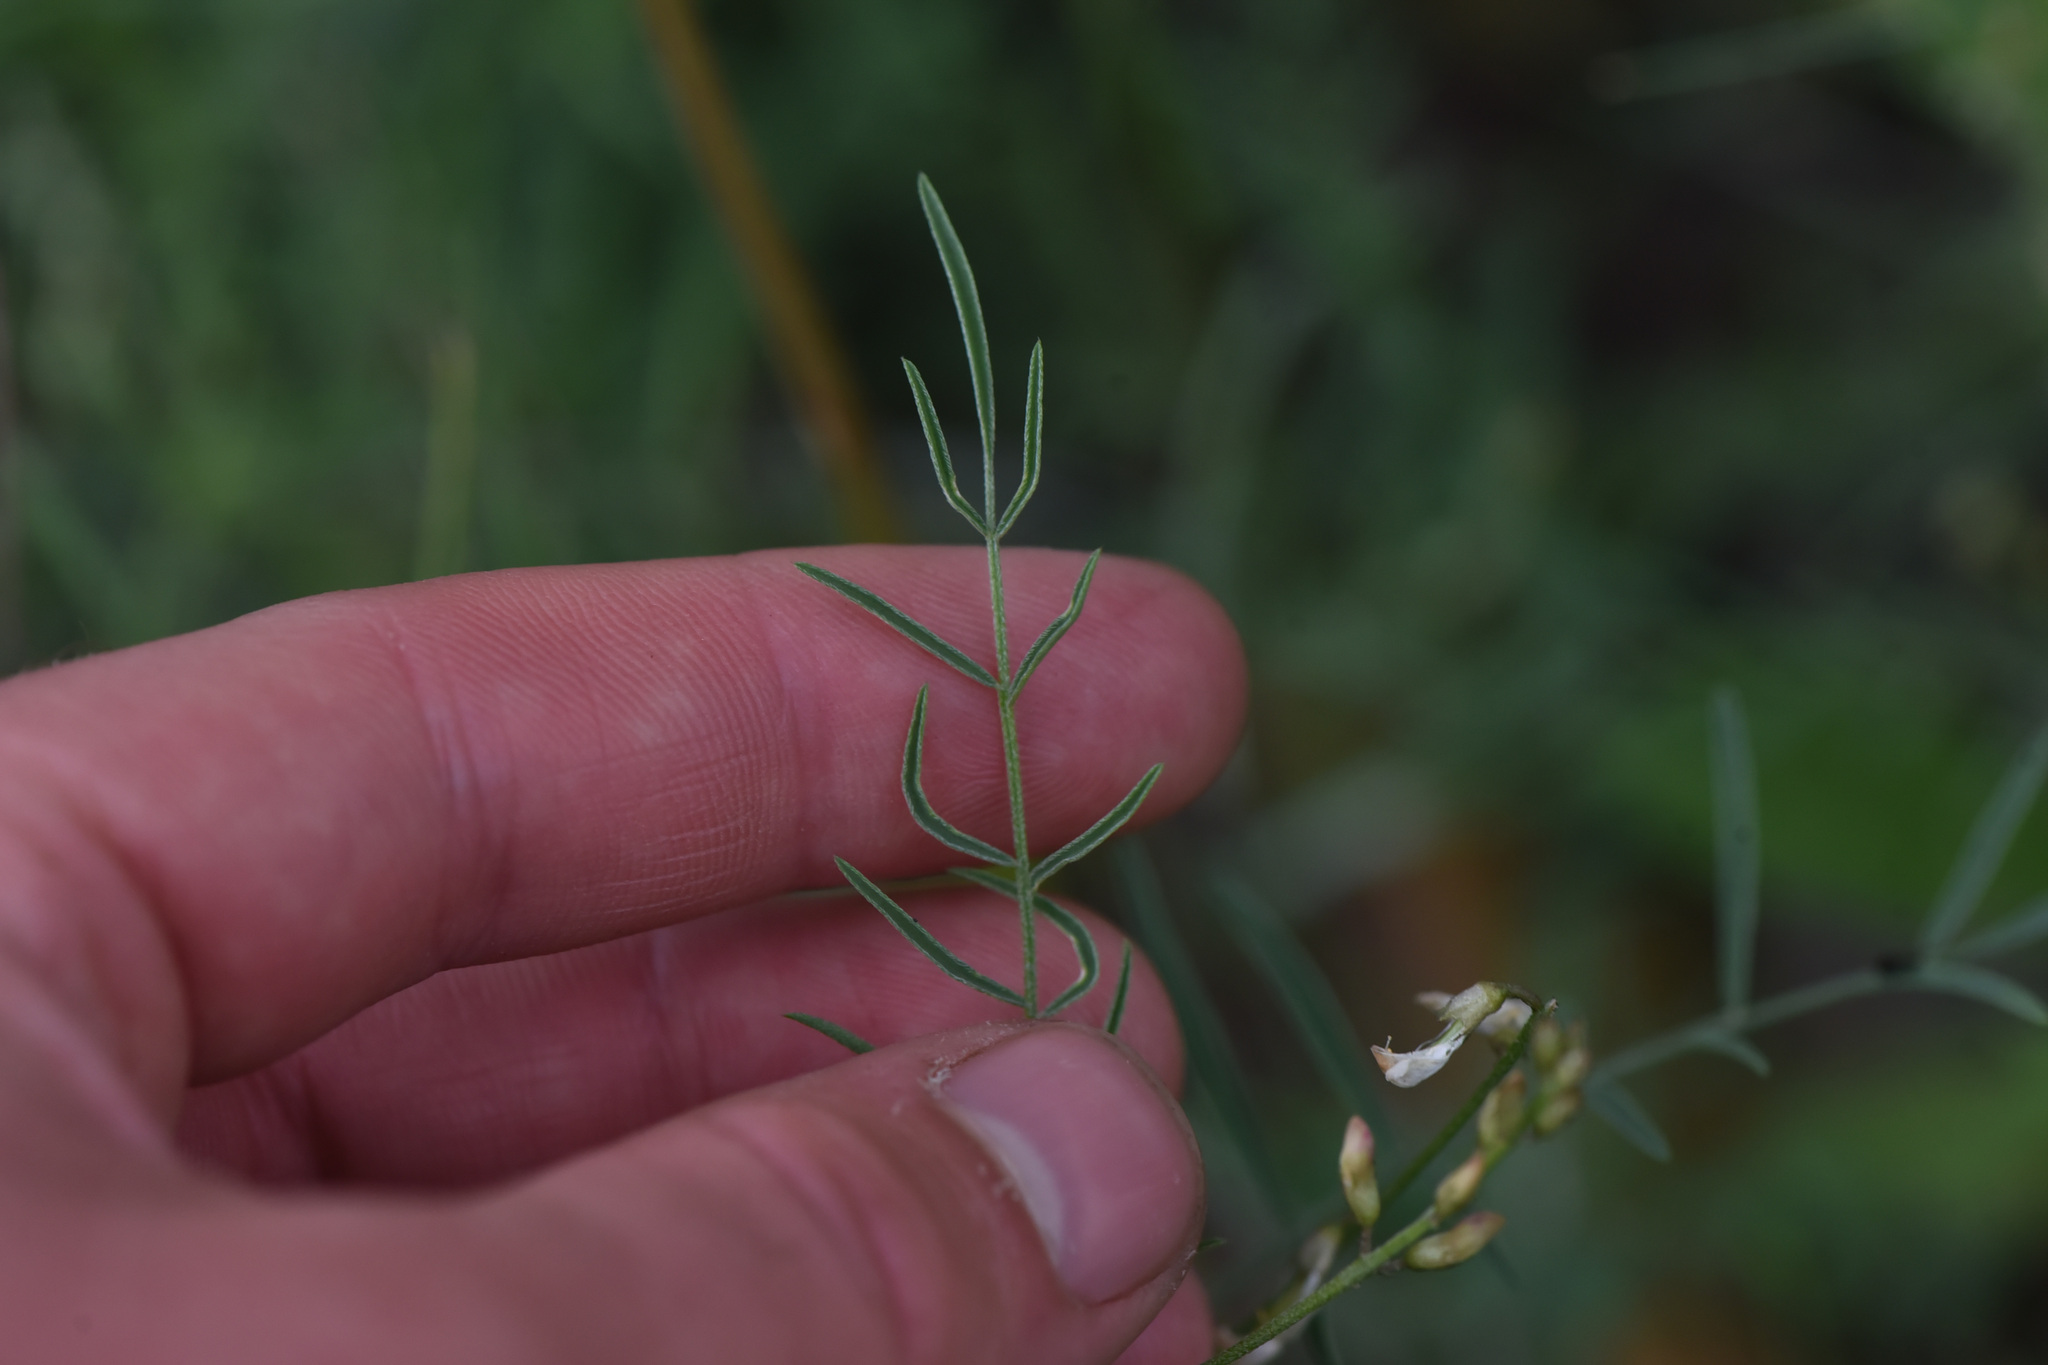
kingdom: Plantae
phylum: Tracheophyta
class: Magnoliopsida
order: Fabales
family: Fabaceae
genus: Astragalus
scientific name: Astragalus miser
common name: Timber milkvetch
